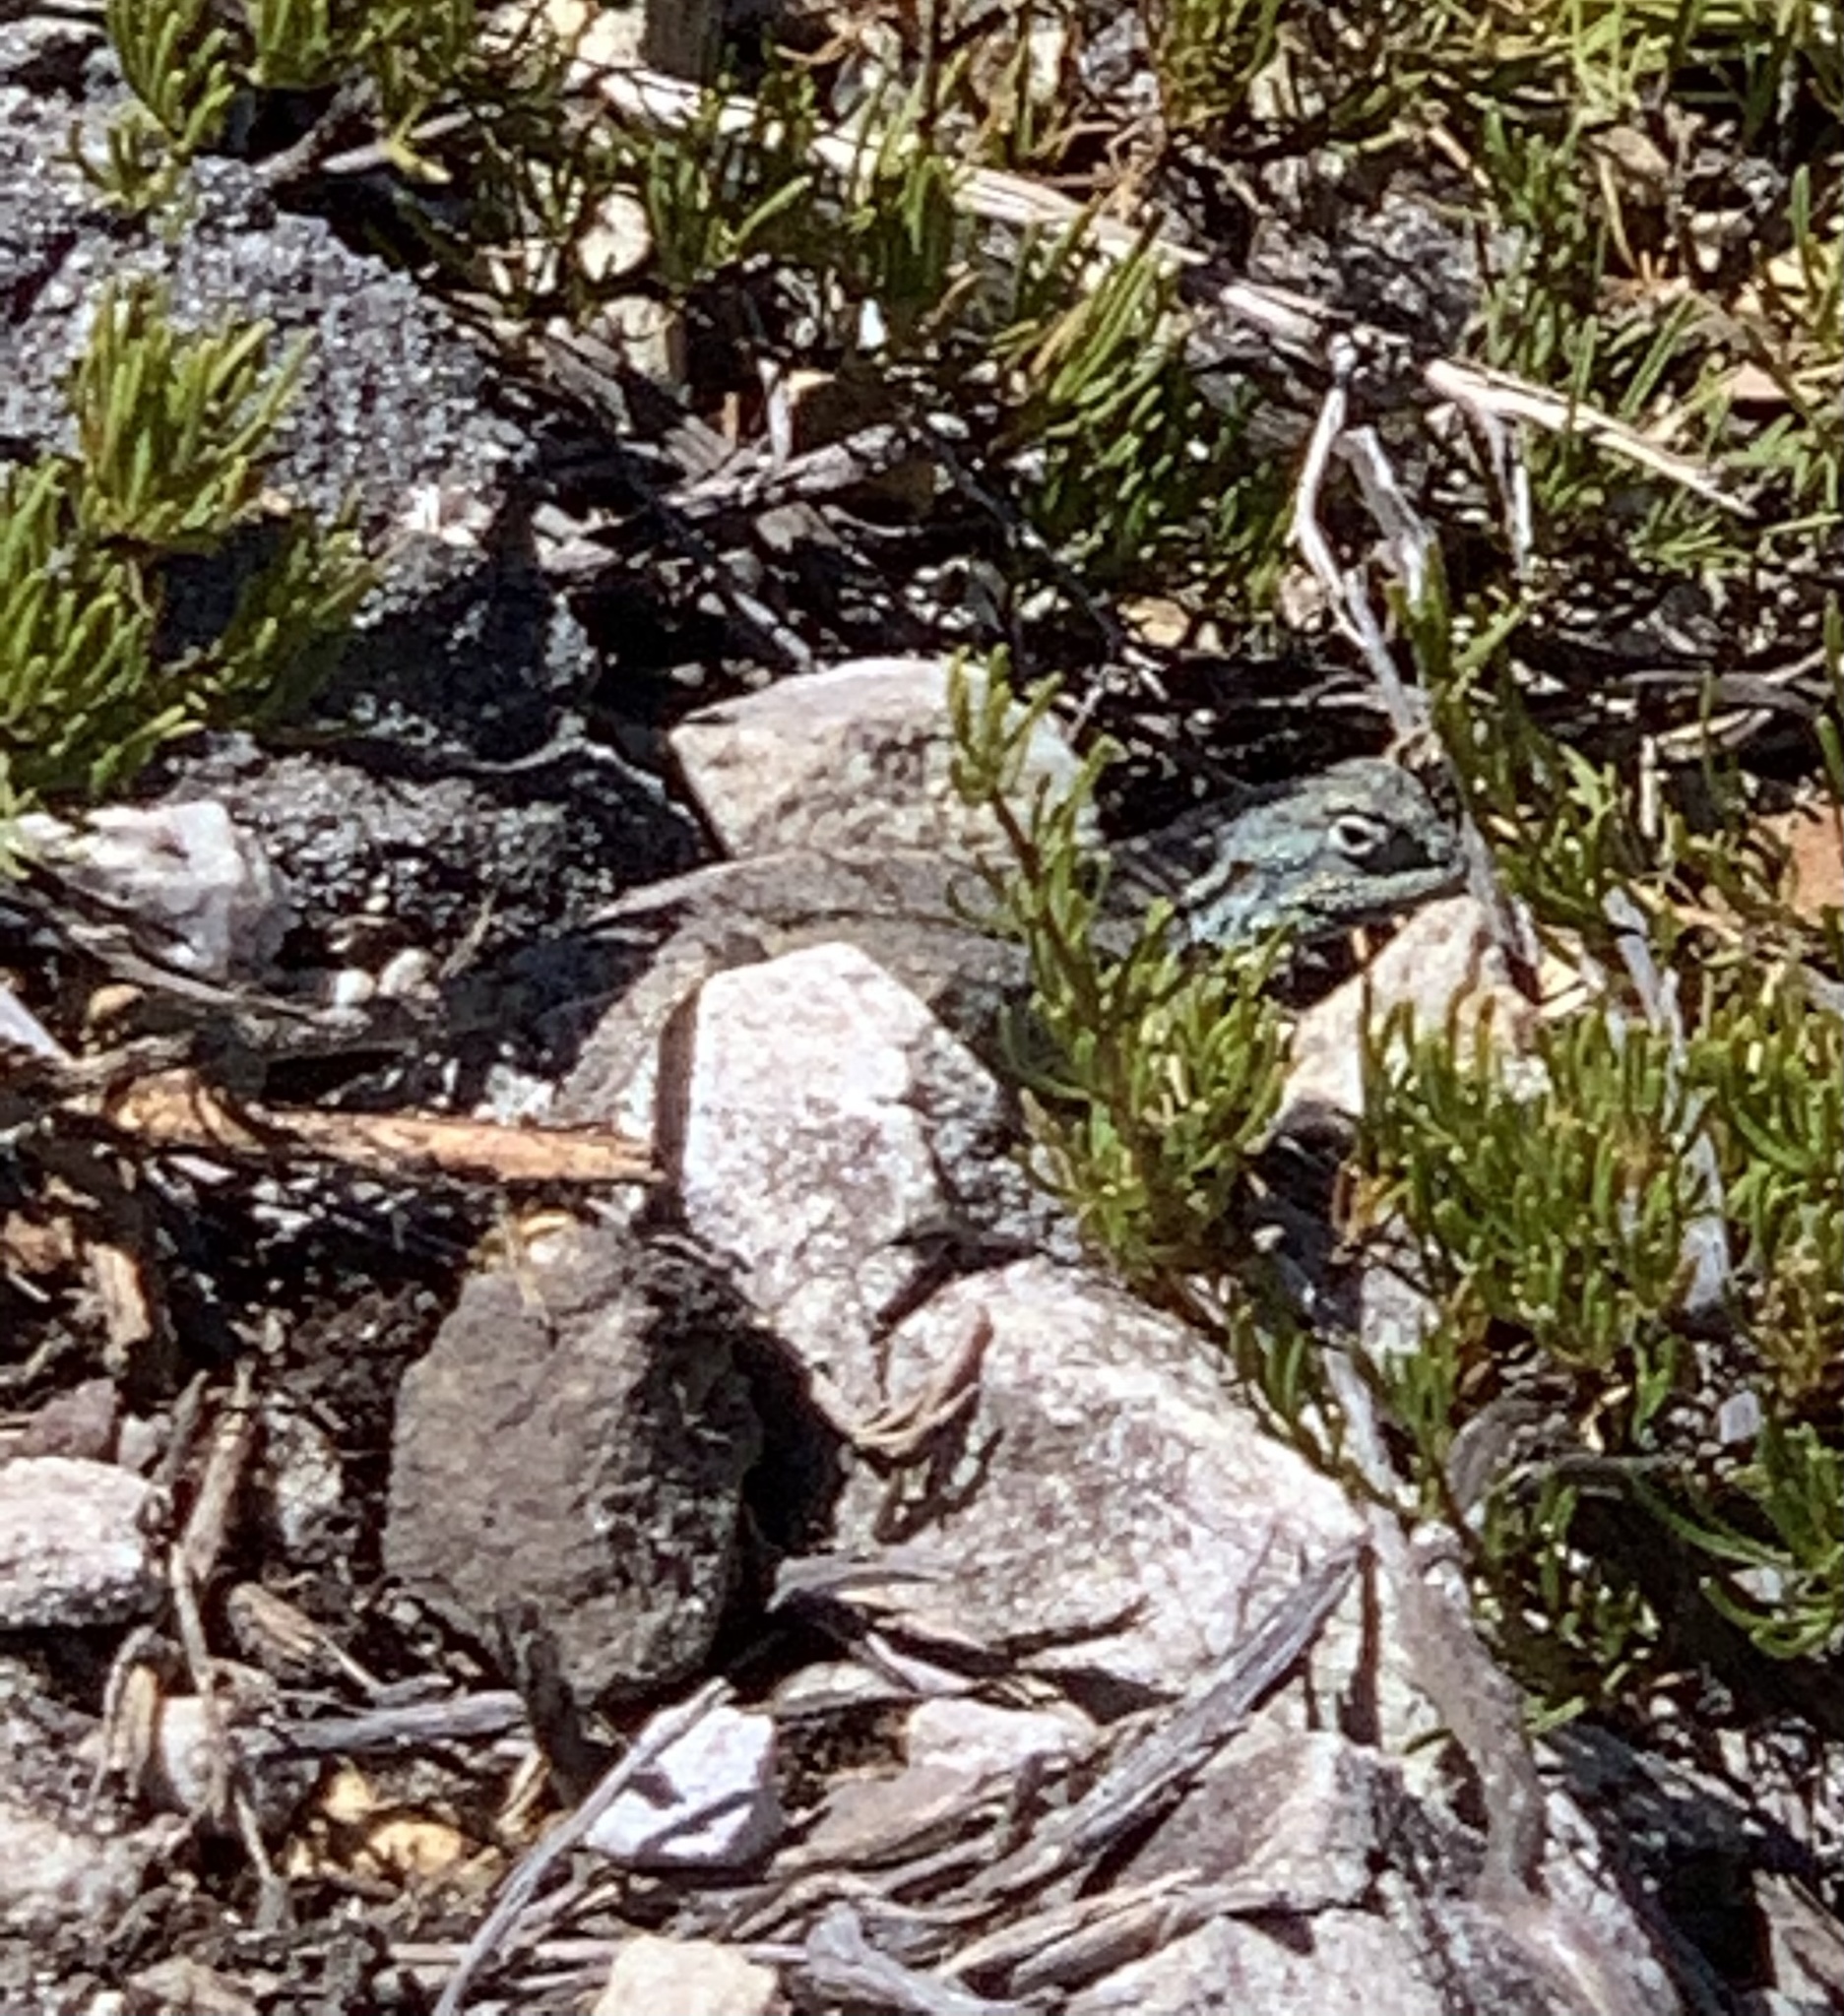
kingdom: Animalia
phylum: Chordata
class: Squamata
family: Agamidae
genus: Agama
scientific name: Agama atra
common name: Southern african rock agama
